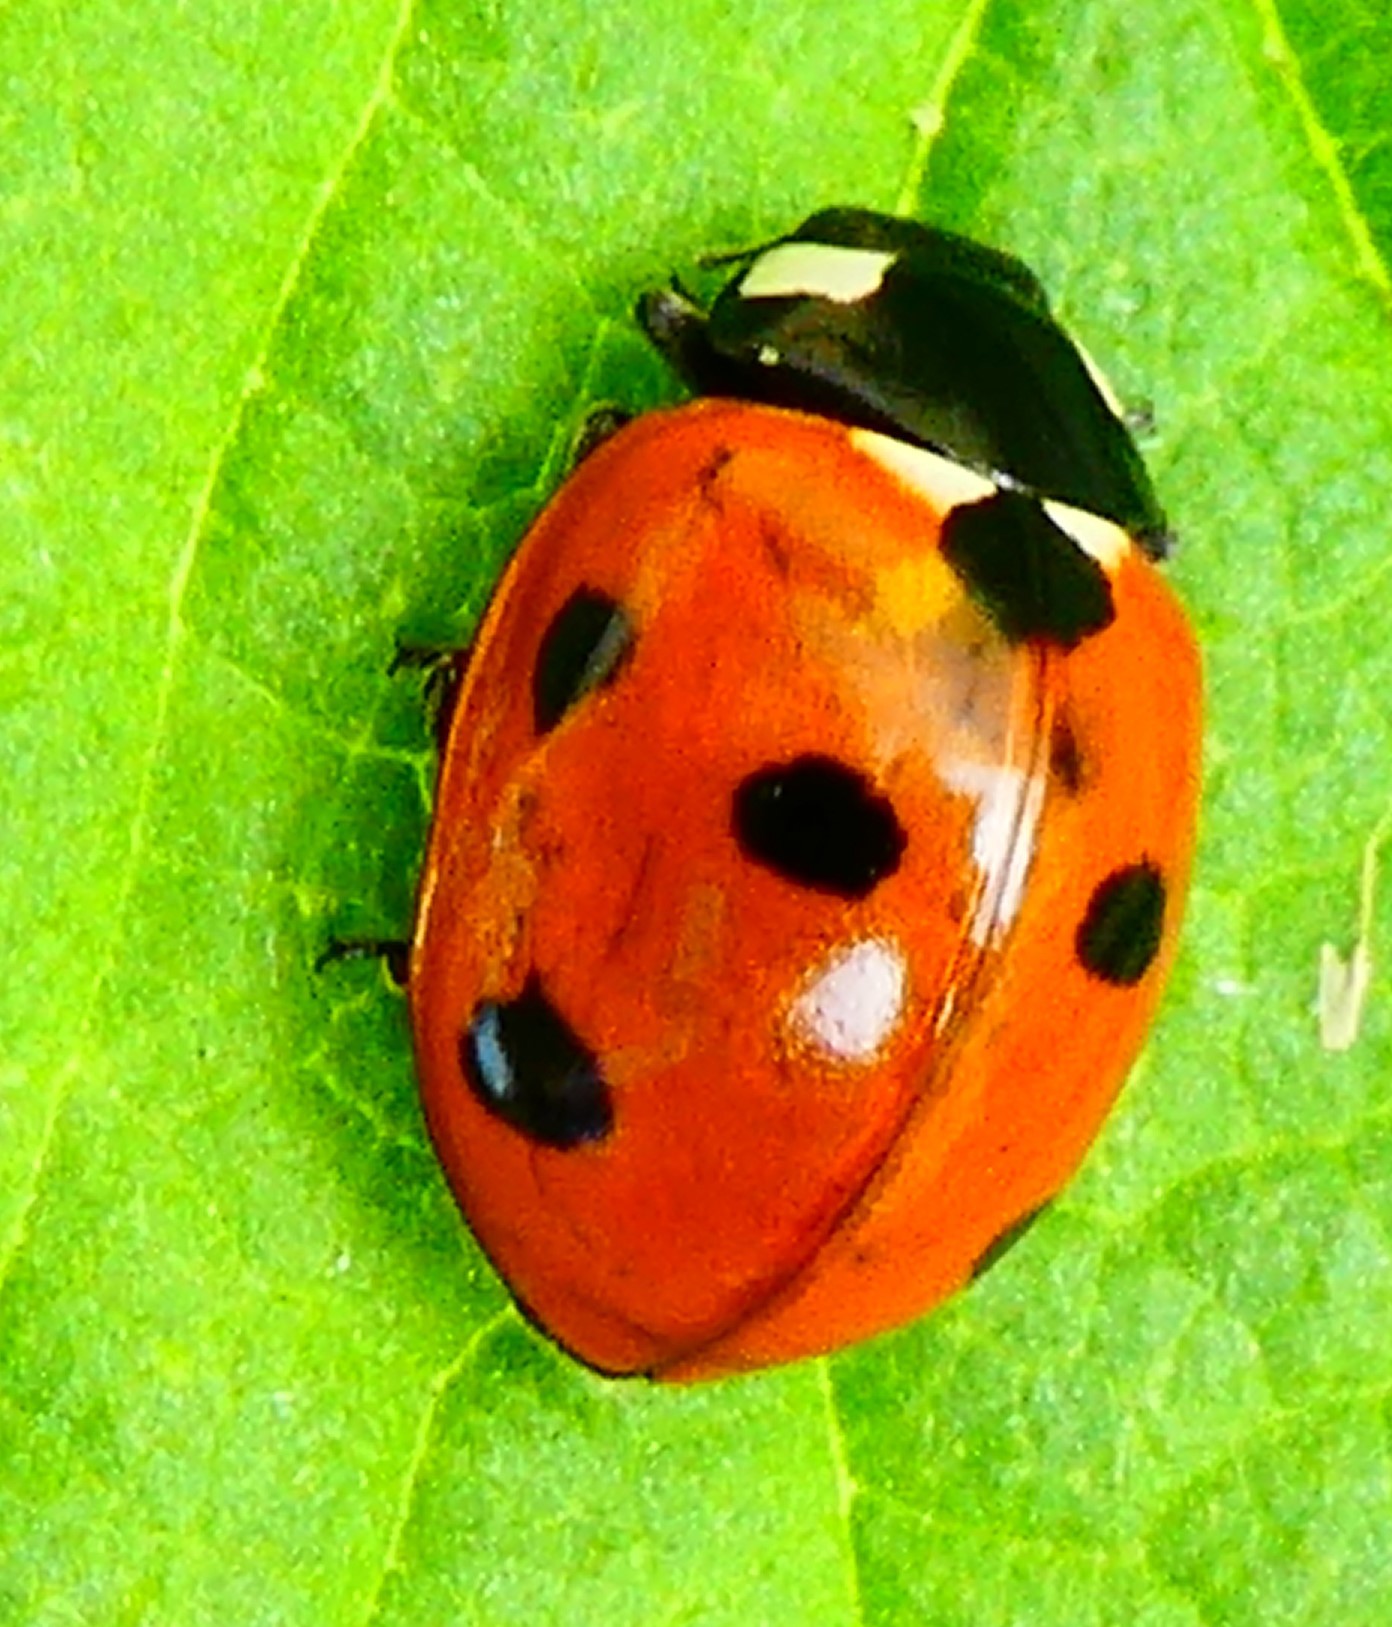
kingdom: Animalia
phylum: Arthropoda
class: Insecta
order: Coleoptera
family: Coccinellidae
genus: Coccinella
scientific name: Coccinella septempunctata
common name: Sevenspotted lady beetle
